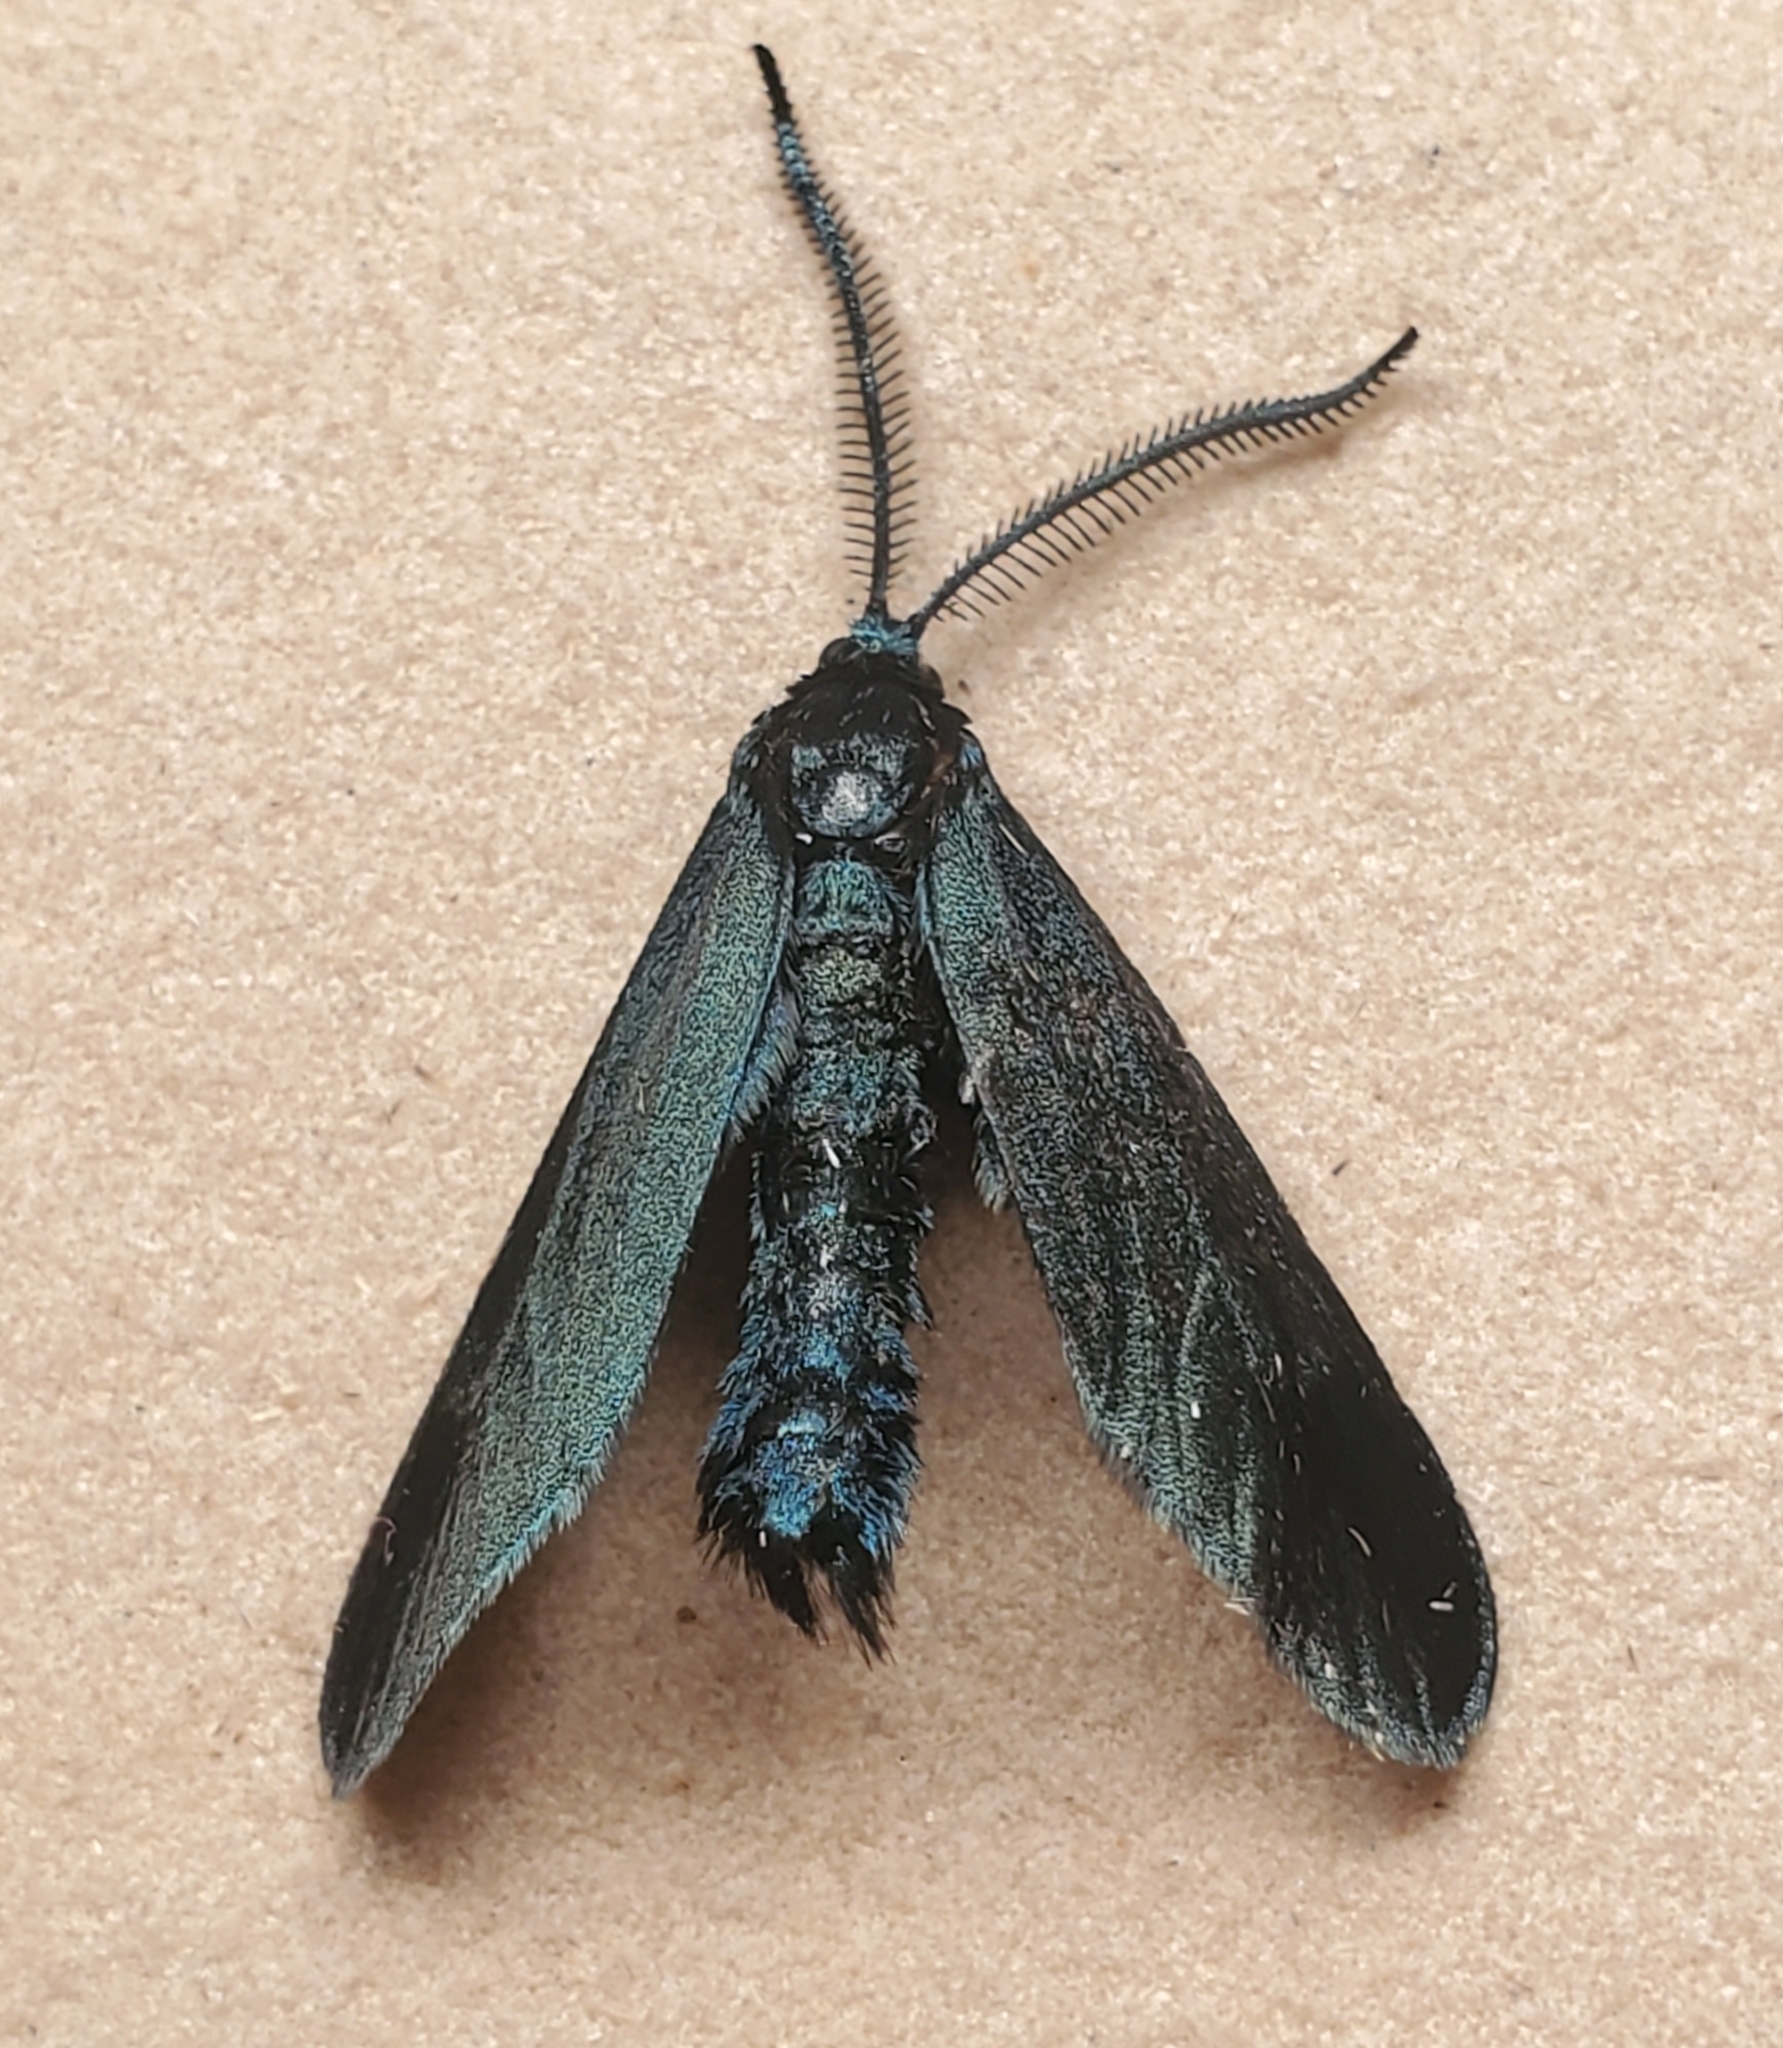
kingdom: Animalia
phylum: Arthropoda
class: Insecta
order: Lepidoptera
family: Zygaenidae
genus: Harrisina
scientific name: Harrisina metallica
